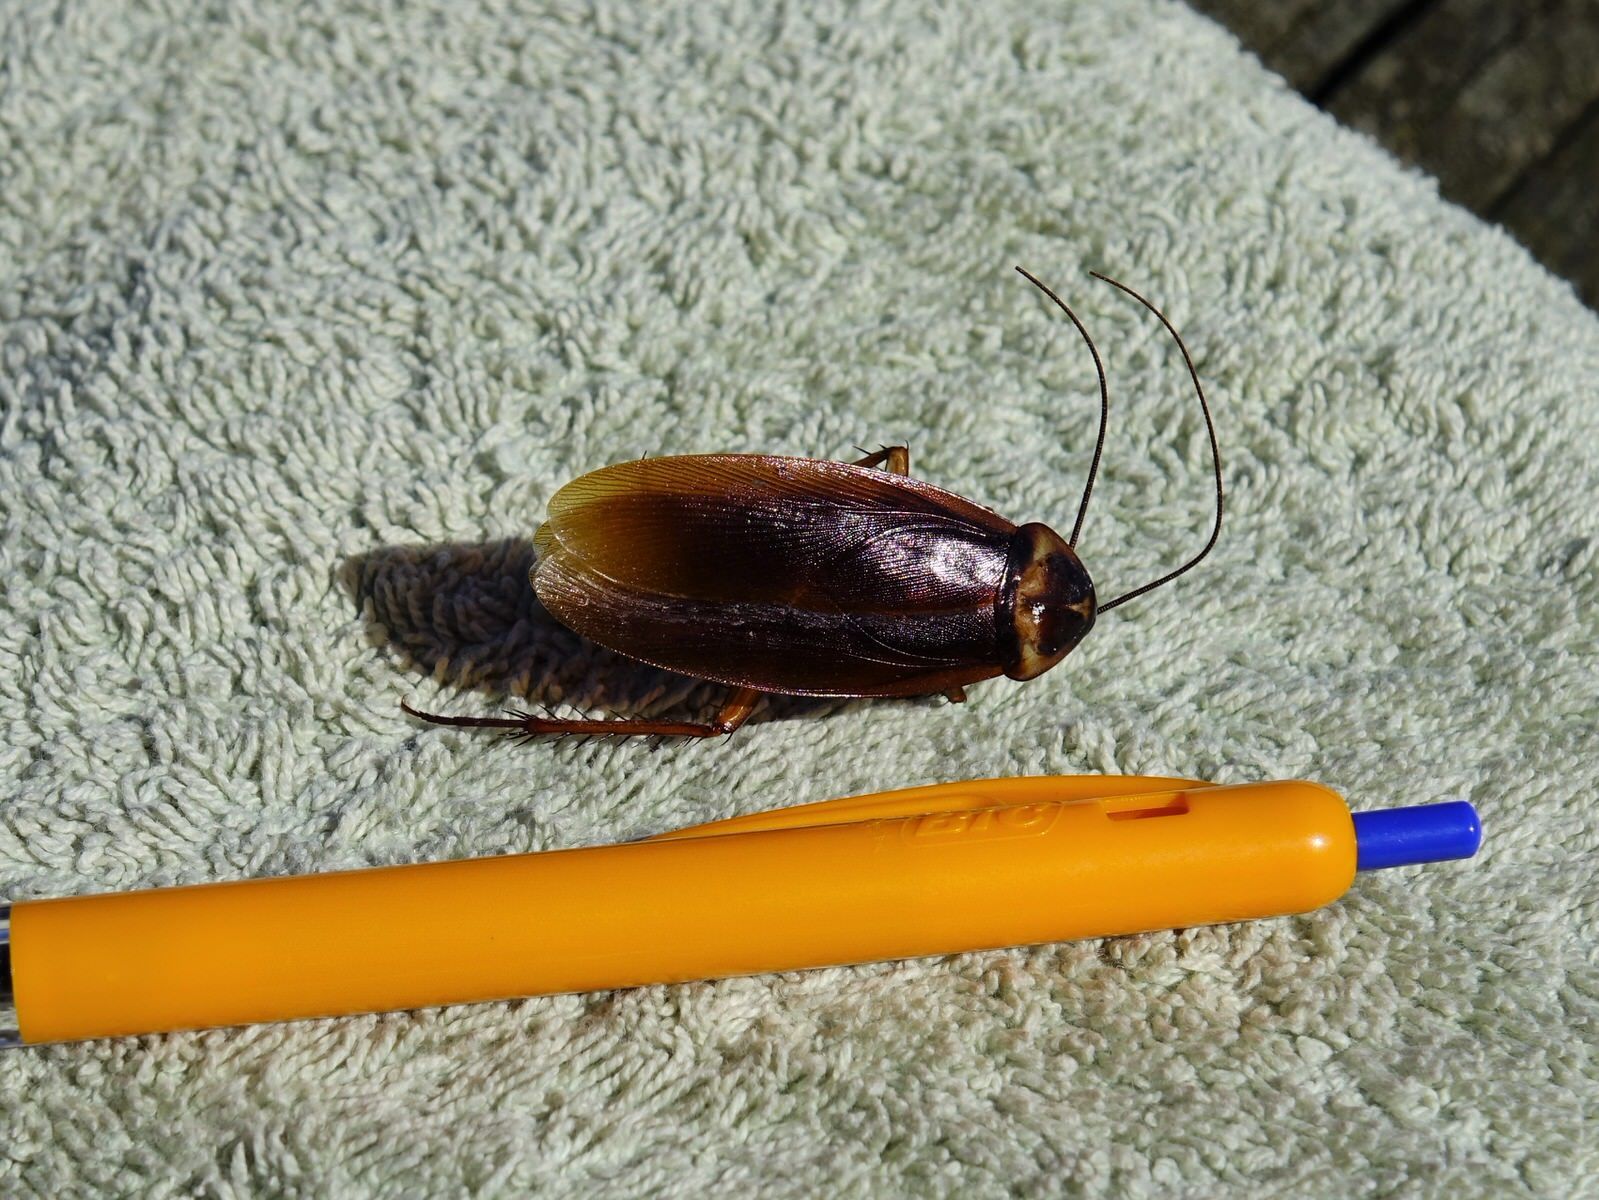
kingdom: Animalia
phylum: Arthropoda
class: Insecta
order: Blattodea
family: Blattidae
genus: Periplaneta
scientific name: Periplaneta americana
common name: American cockroach
